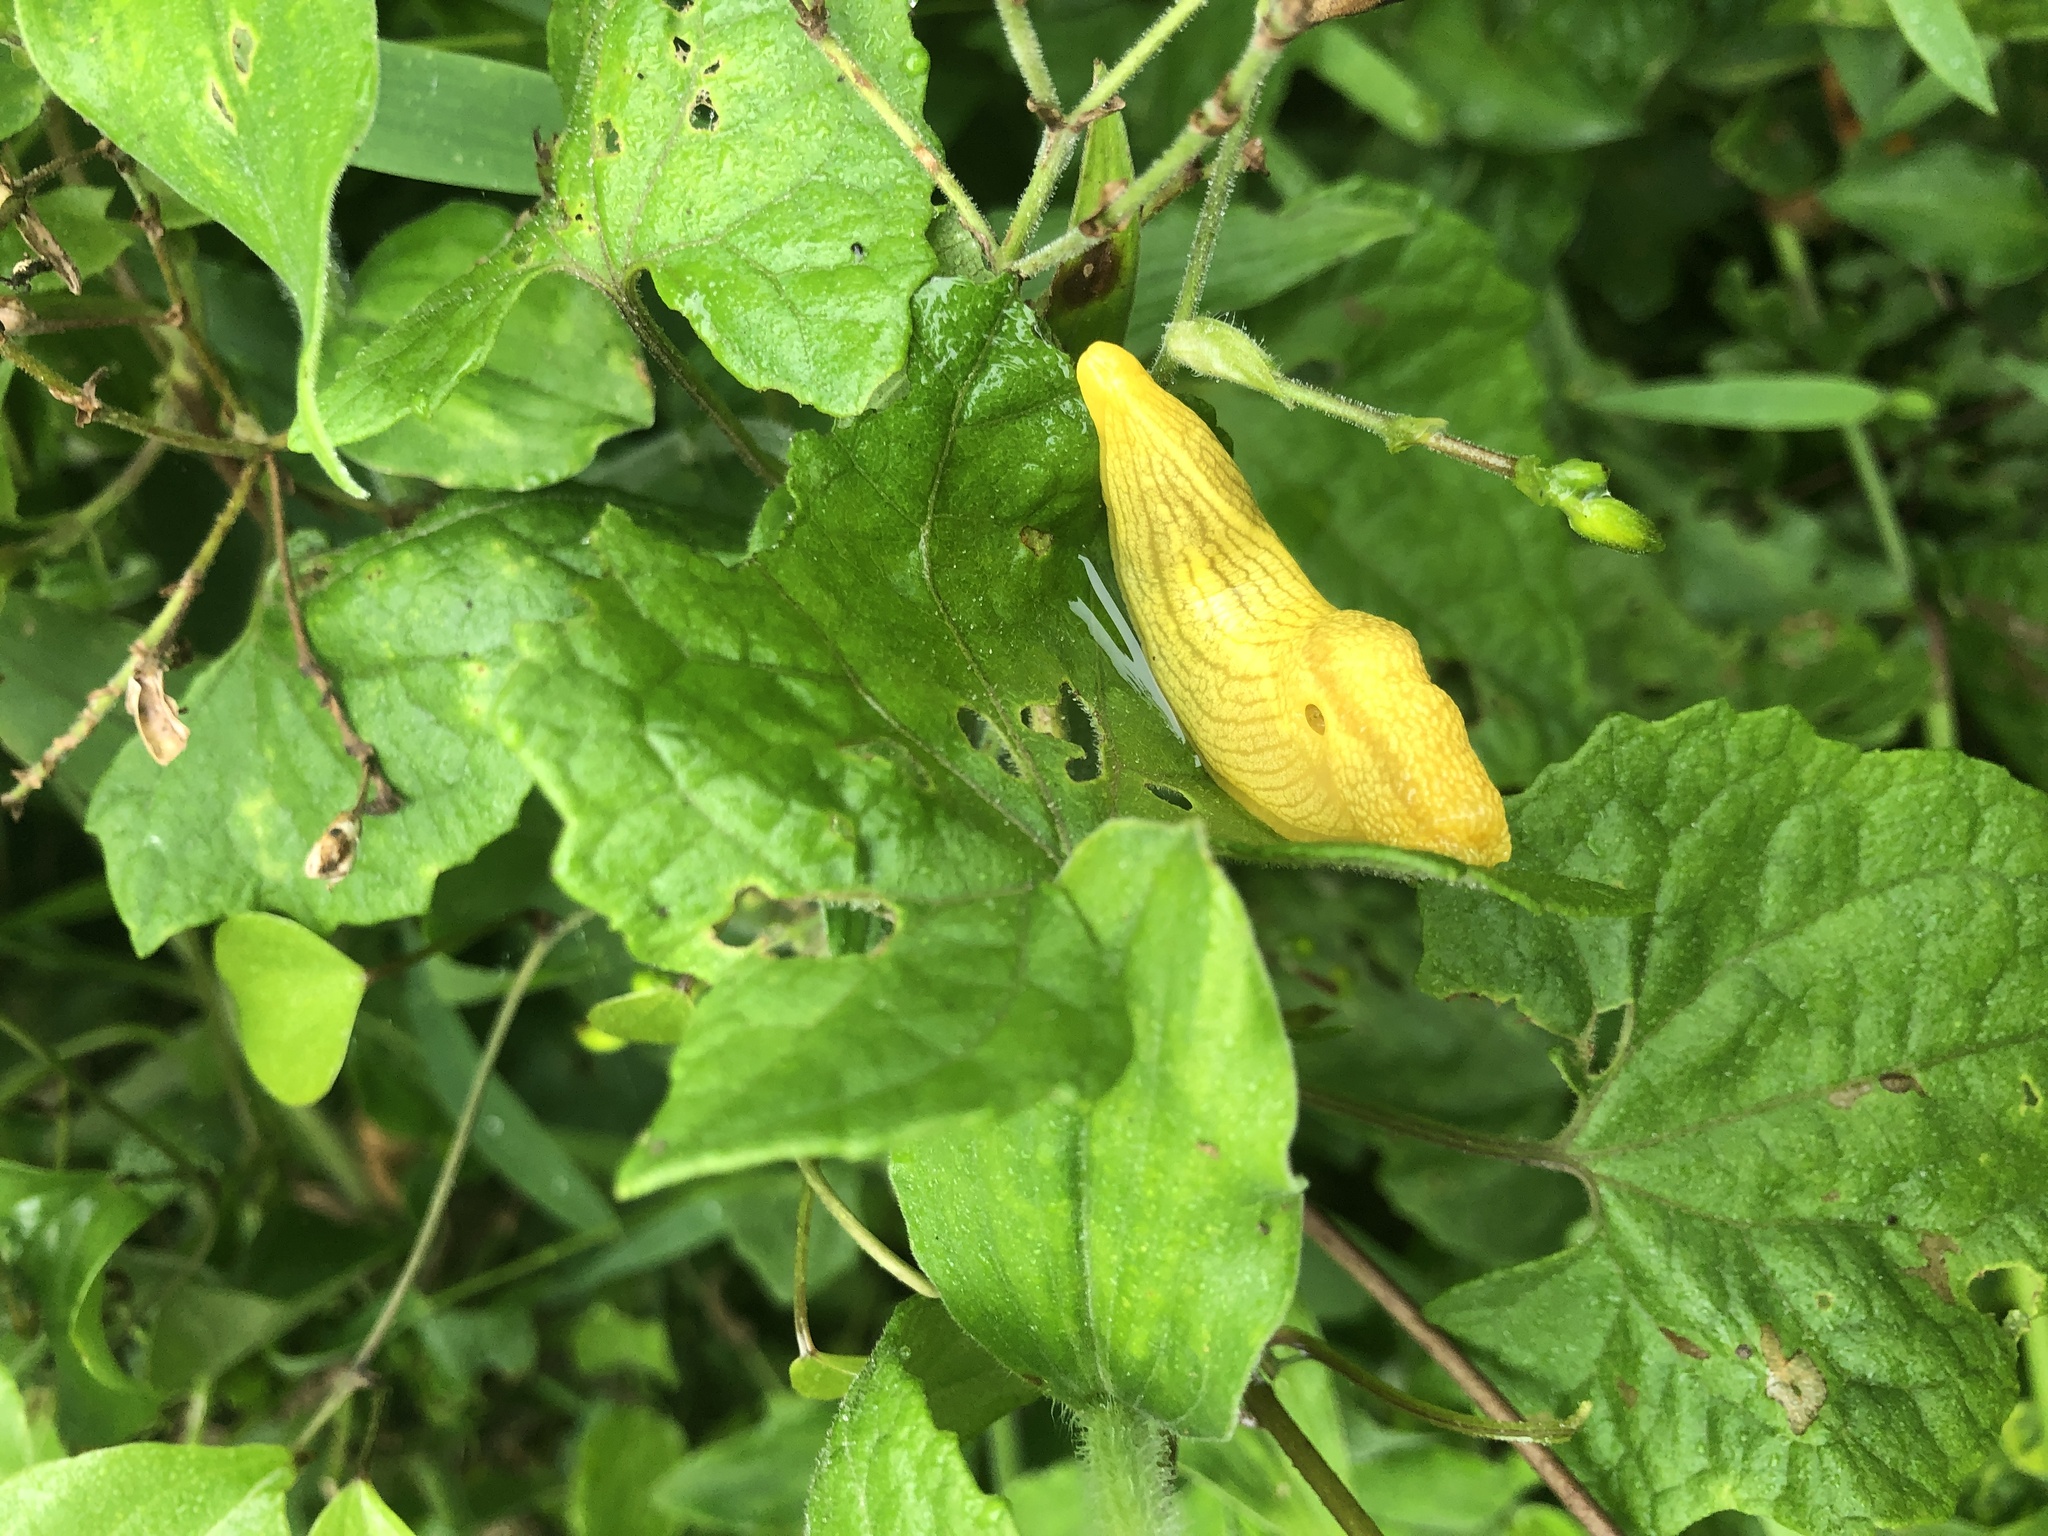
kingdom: Animalia
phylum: Mollusca
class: Gastropoda
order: Stylommatophora
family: Urocyclidae
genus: Elisolimax
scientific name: Elisolimax flavescens
